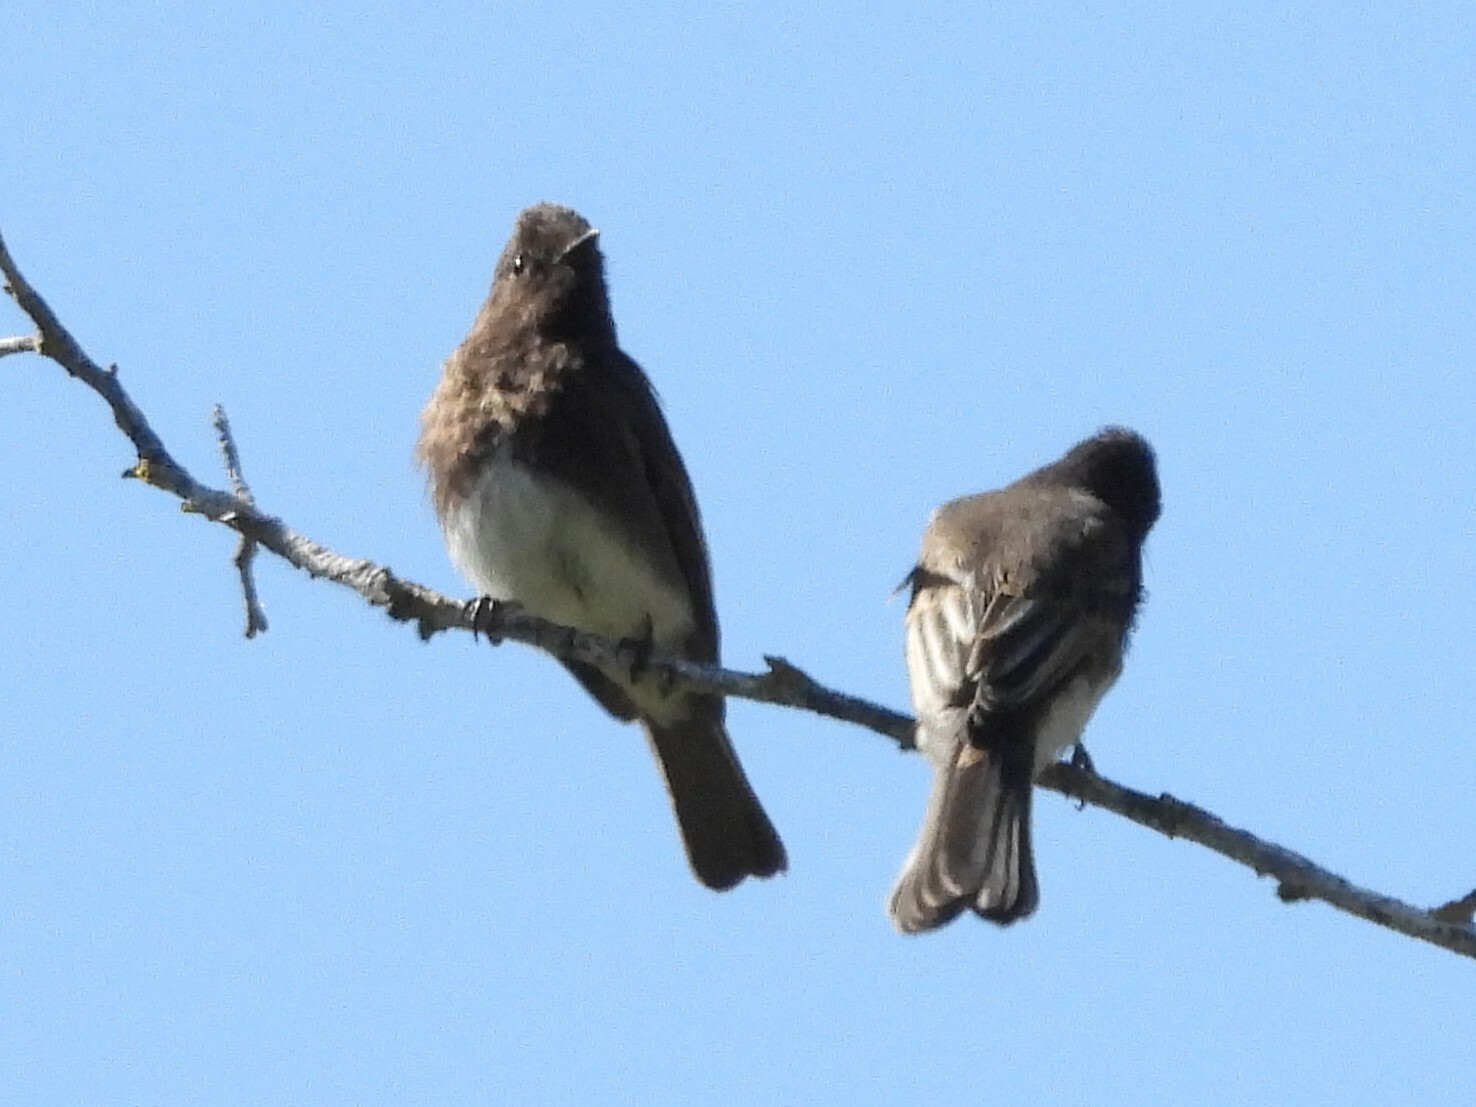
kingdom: Animalia
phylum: Chordata
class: Aves
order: Passeriformes
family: Tyrannidae
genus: Sayornis
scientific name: Sayornis nigricans
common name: Black phoebe
